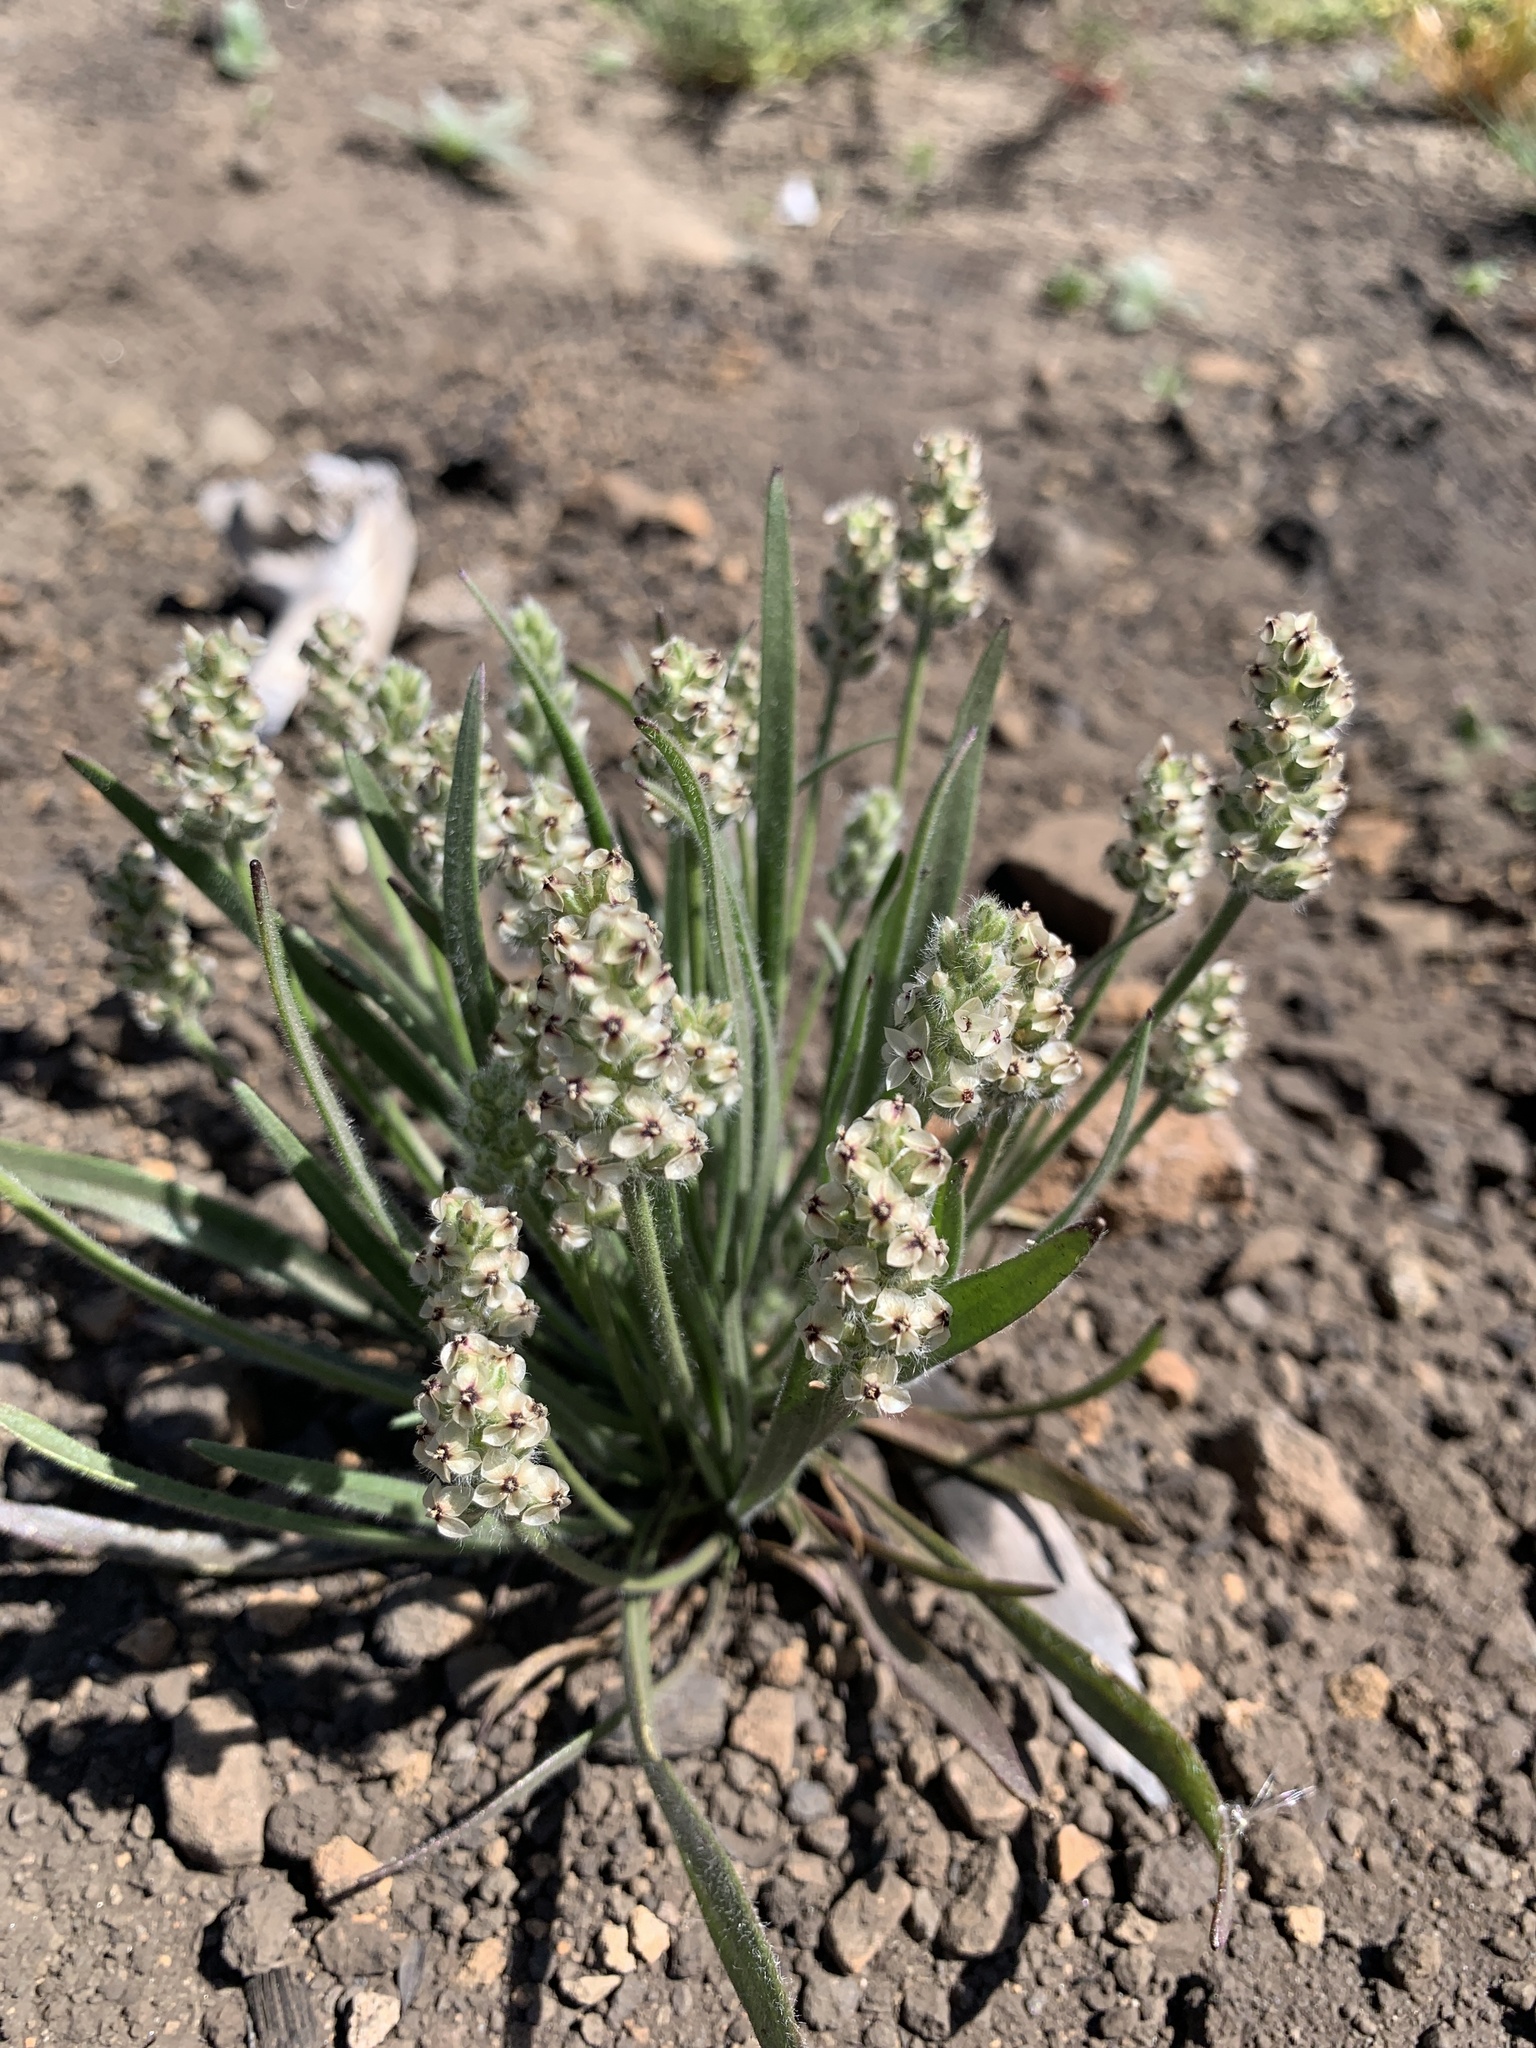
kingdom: Plantae
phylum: Tracheophyta
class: Magnoliopsida
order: Lamiales
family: Plantaginaceae
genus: Plantago
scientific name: Plantago erecta
